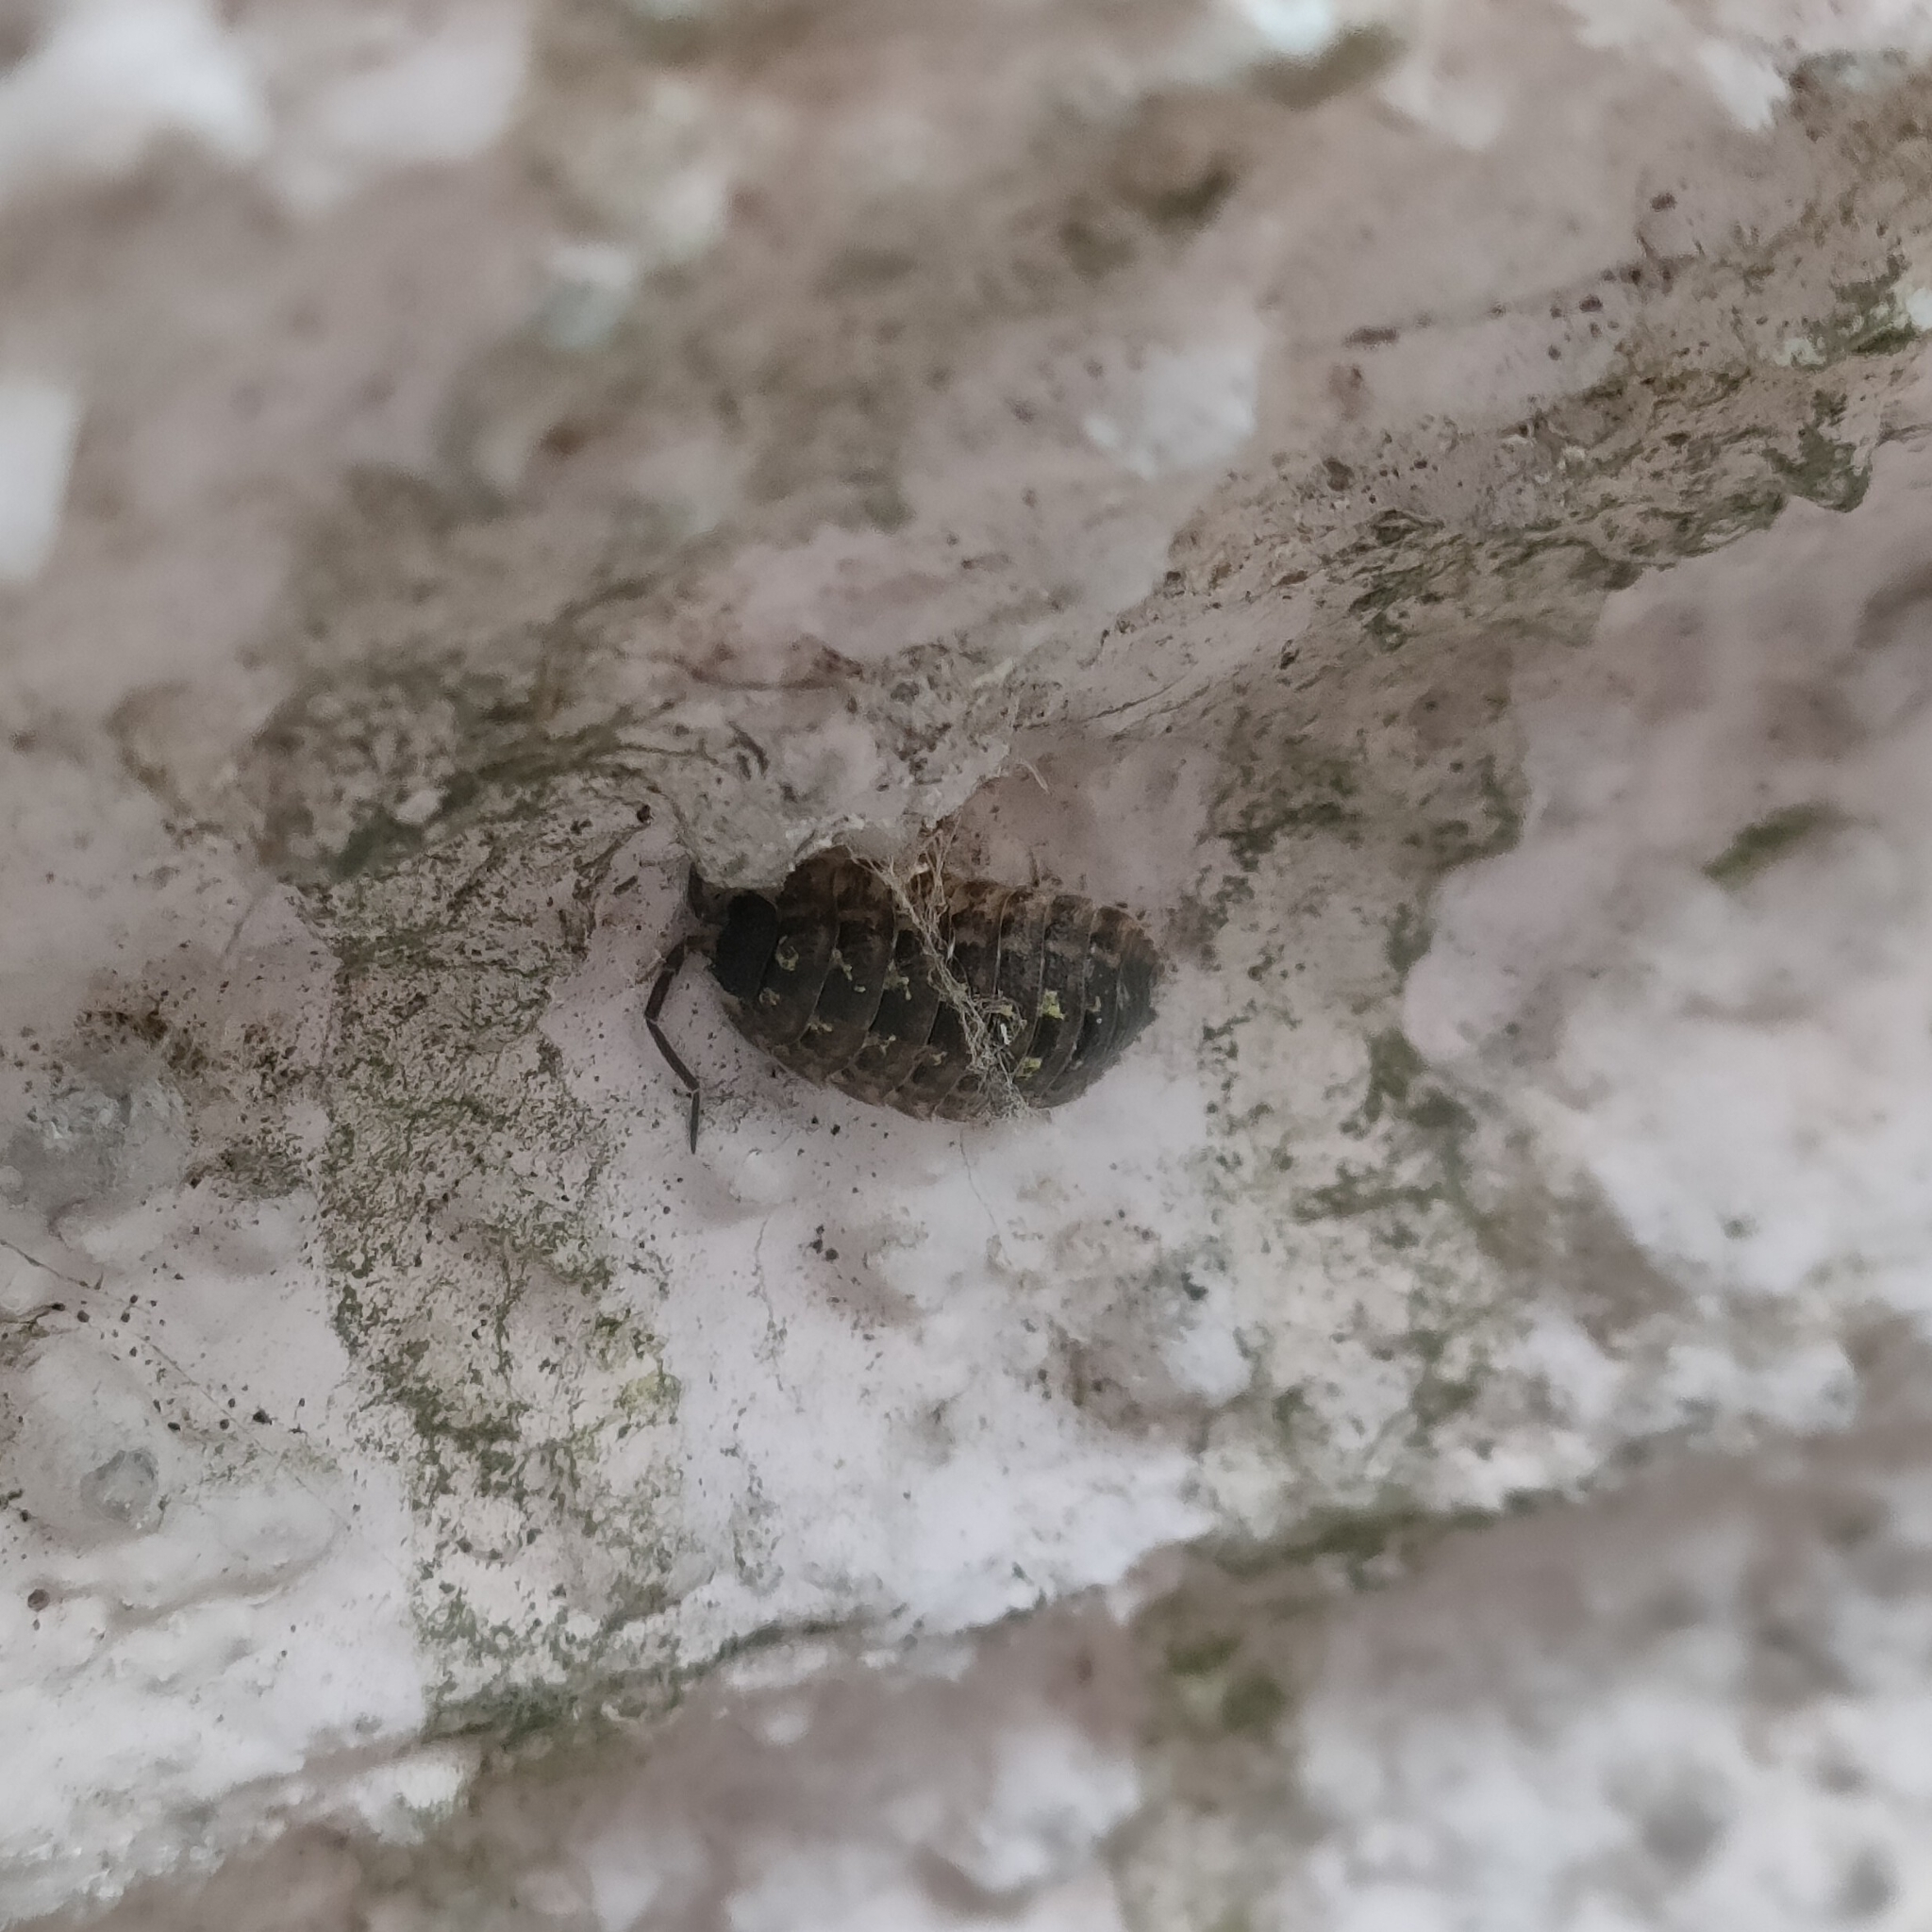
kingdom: Animalia
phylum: Arthropoda
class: Malacostraca
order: Isopoda
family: Porcellionidae
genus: Porcellio
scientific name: Porcellio spinicornis
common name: Painted woodlouse
